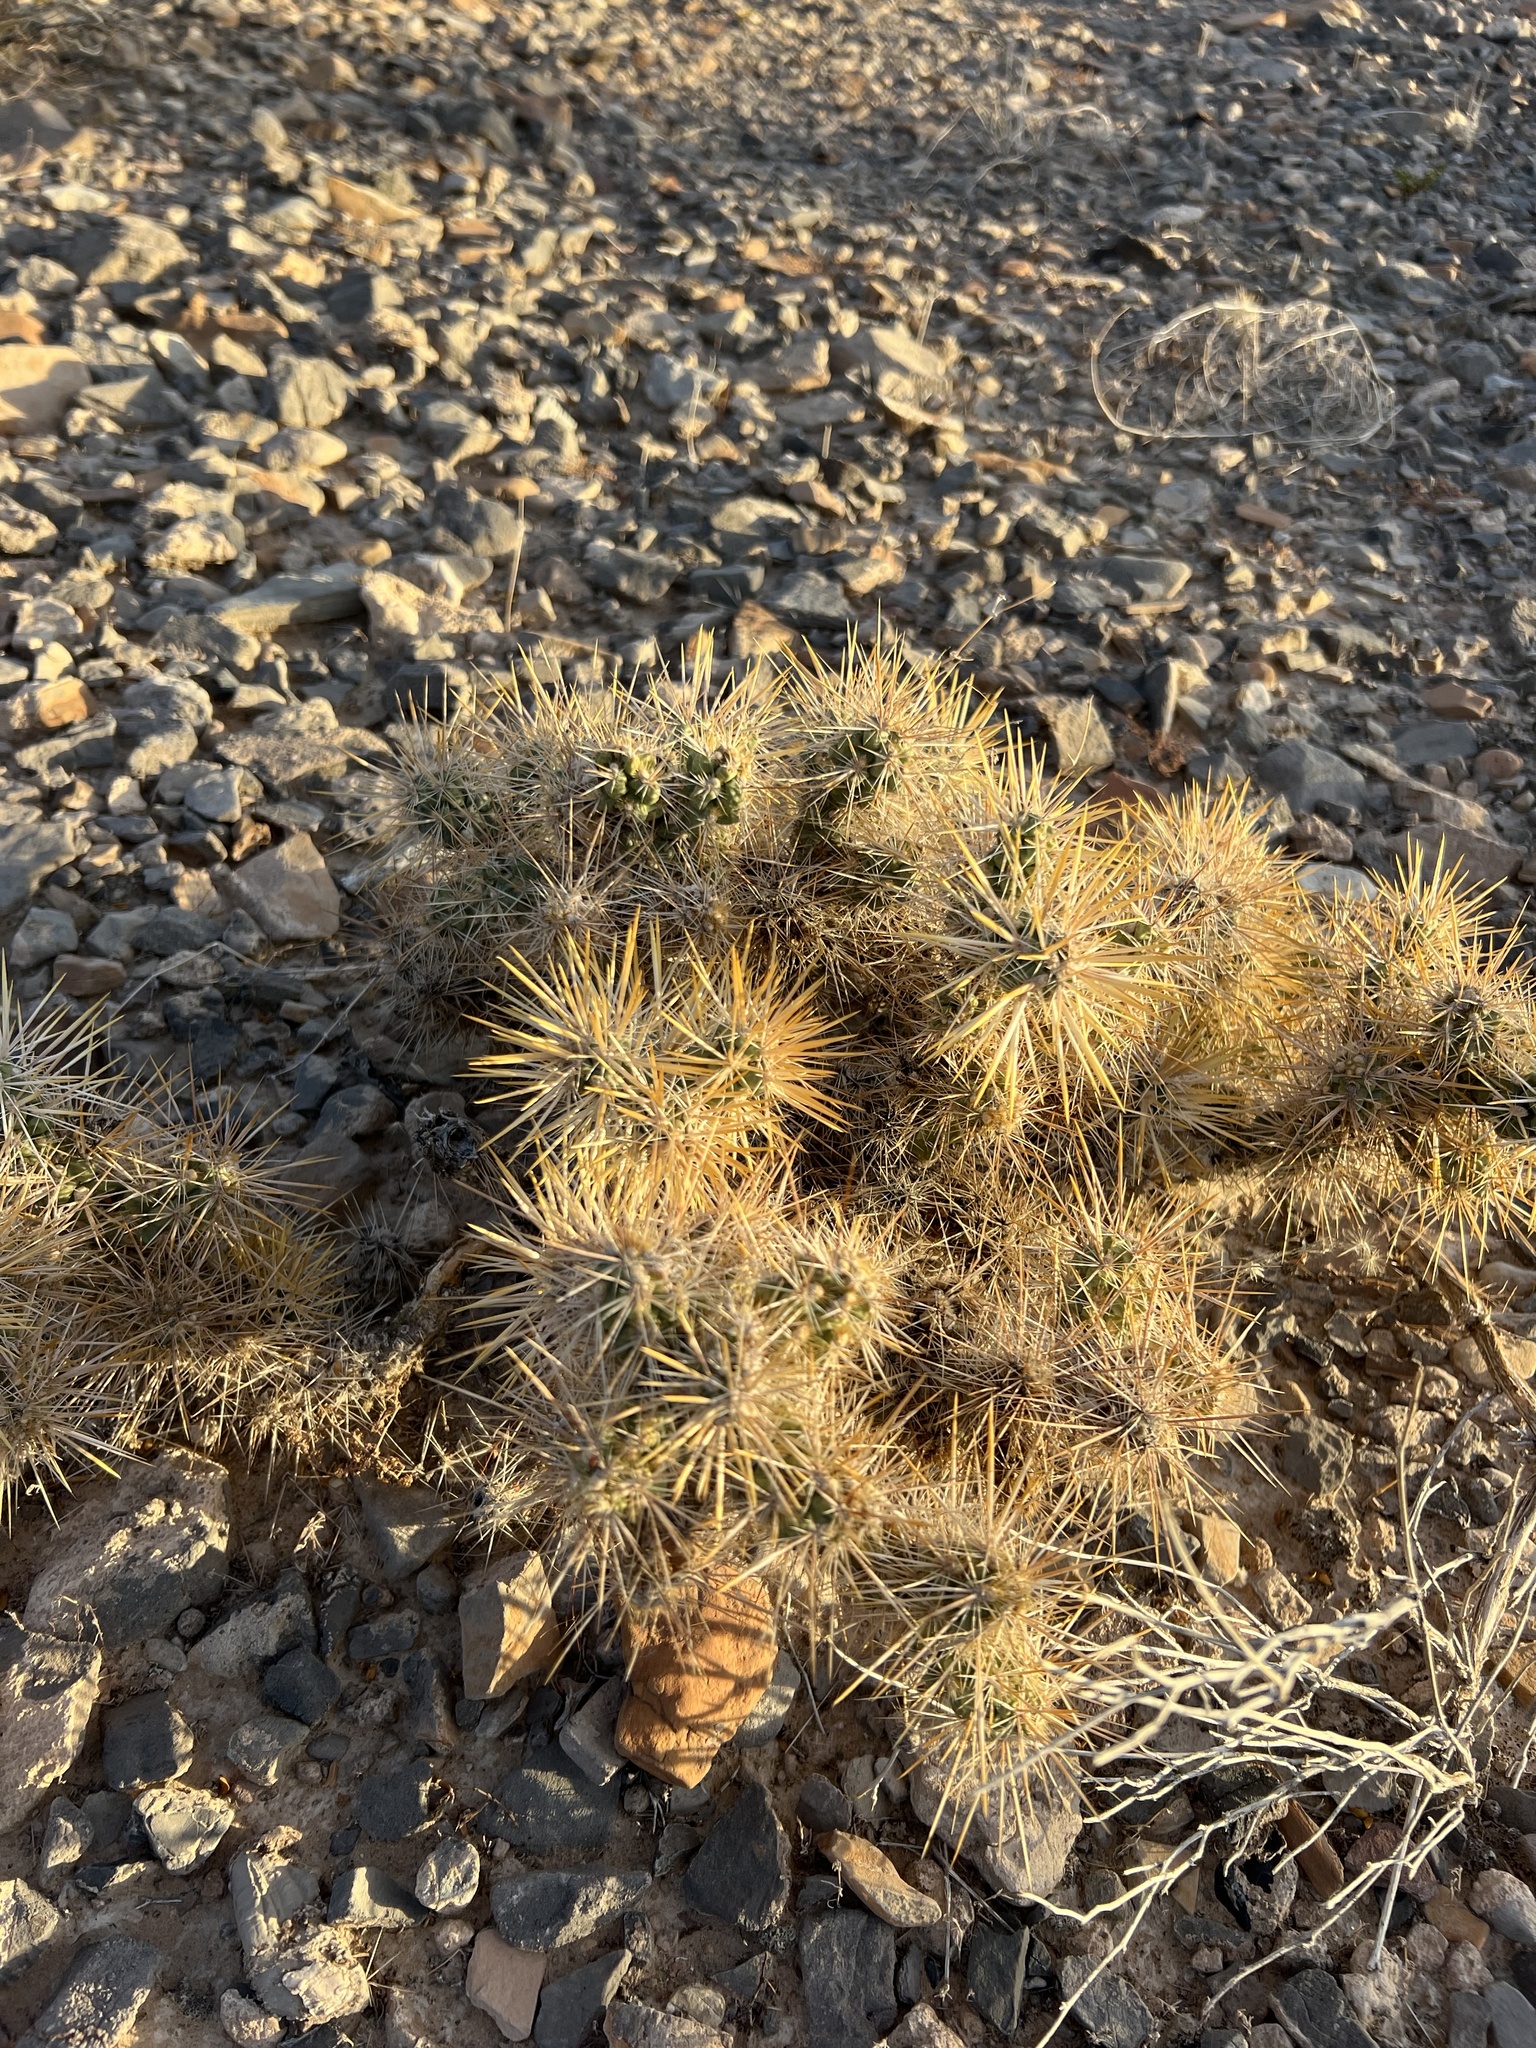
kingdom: Plantae
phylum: Tracheophyta
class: Magnoliopsida
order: Caryophyllales
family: Cactaceae
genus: Cylindropuntia
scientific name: Cylindropuntia echinocarpa
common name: Ground cholla
